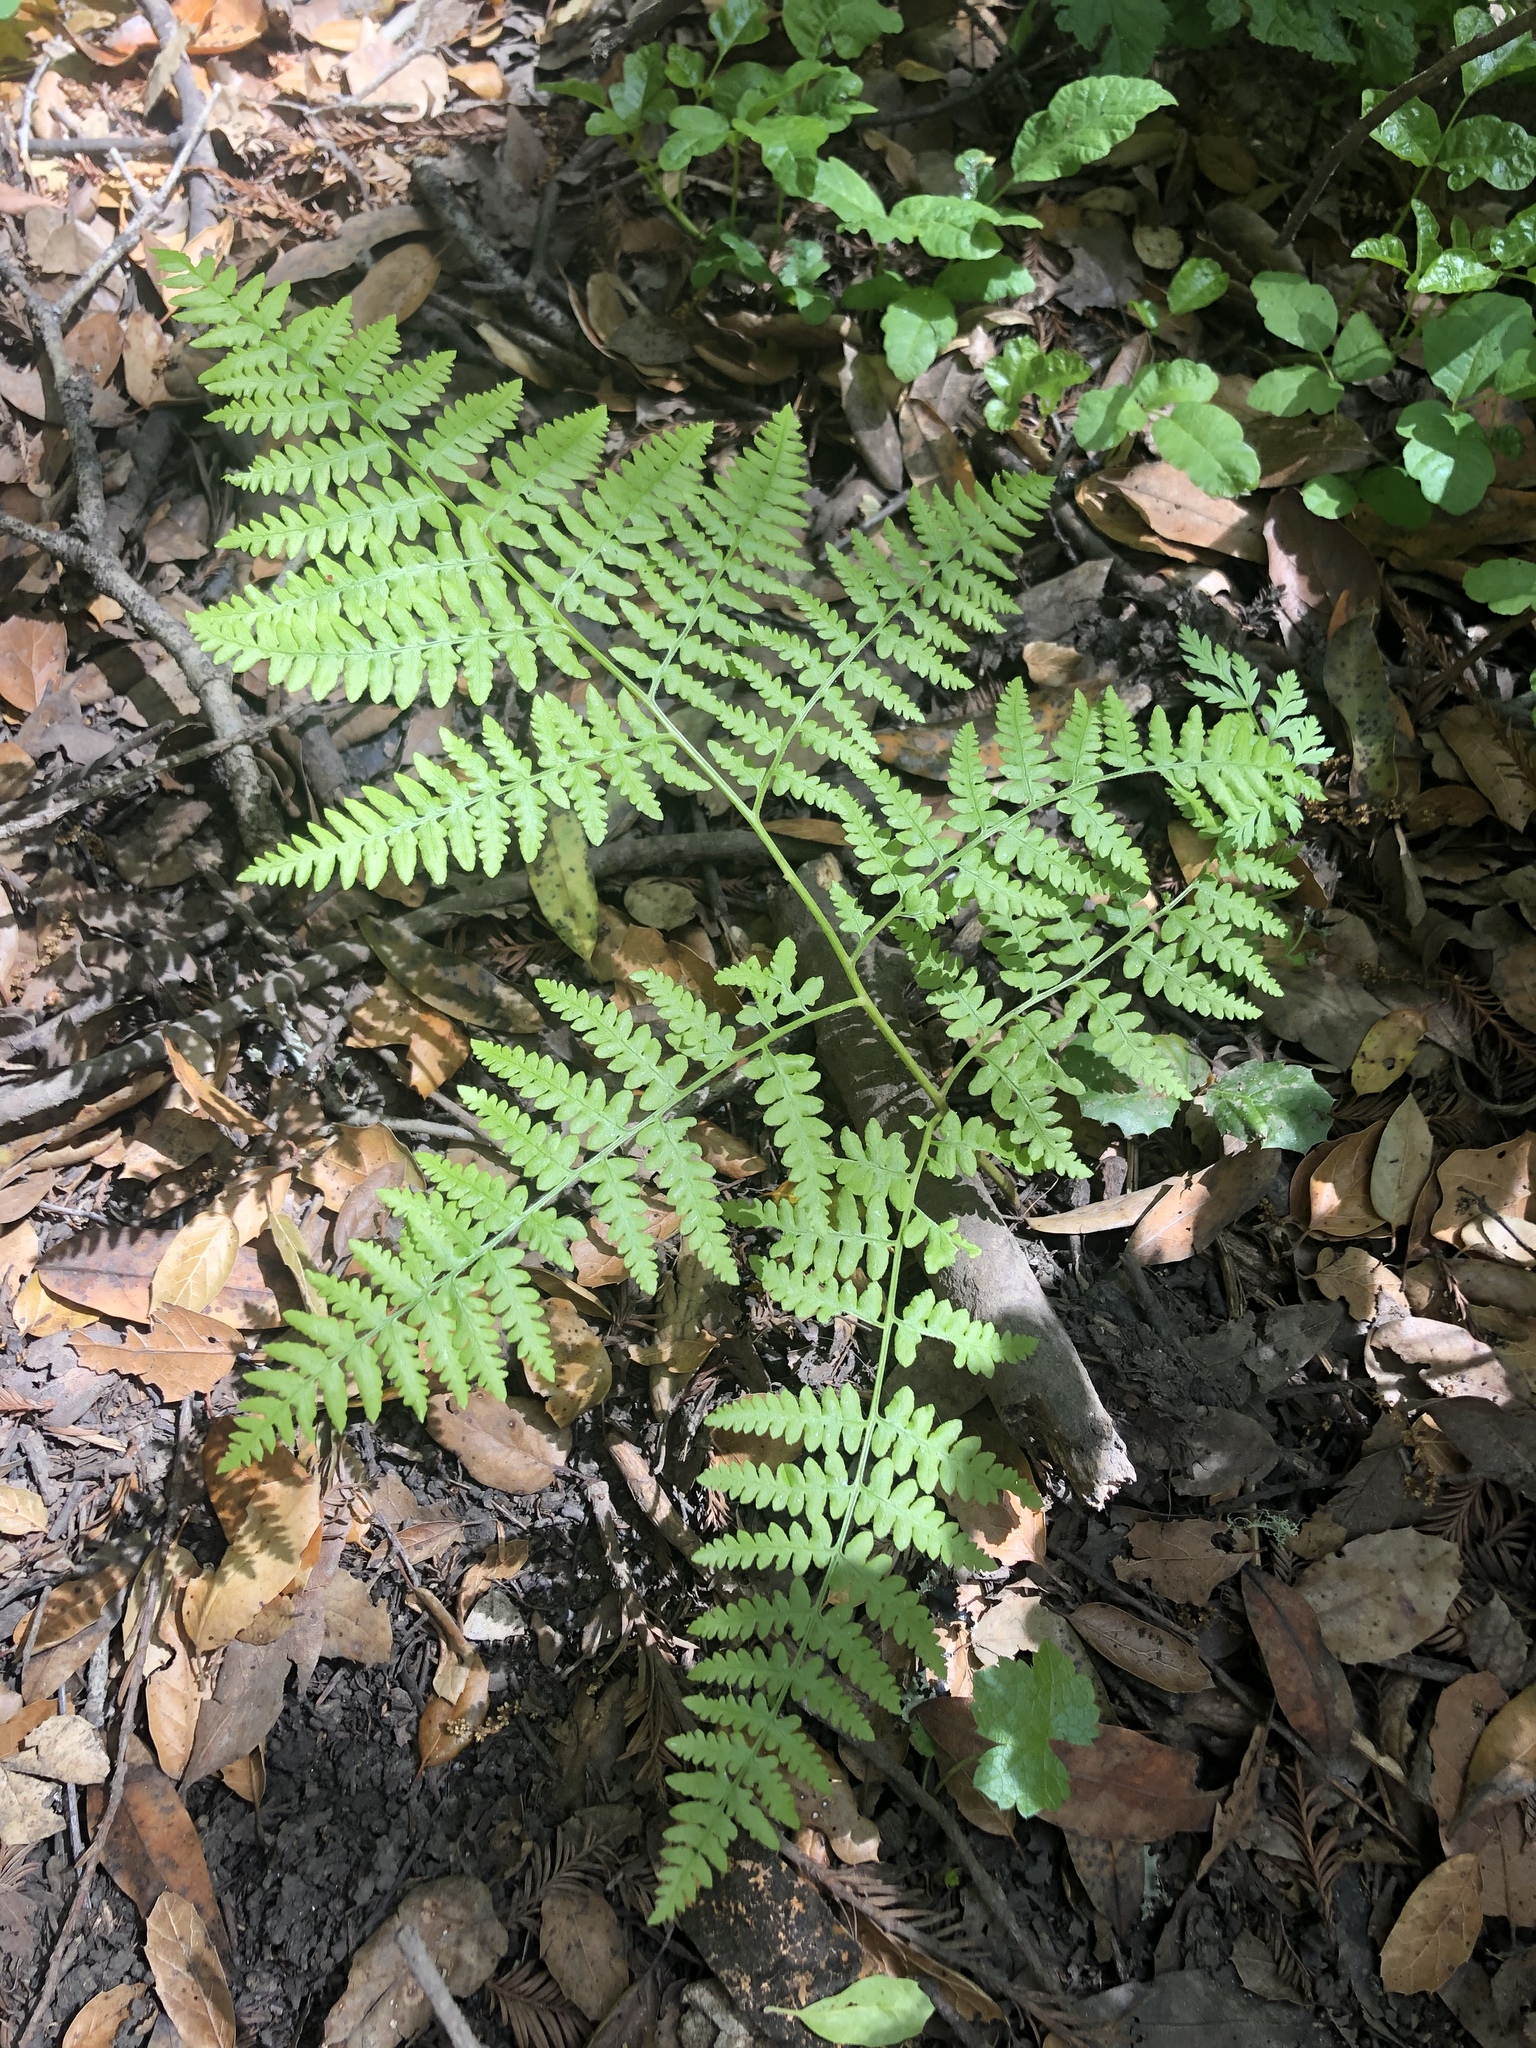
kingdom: Plantae
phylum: Tracheophyta
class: Polypodiopsida
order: Polypodiales
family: Dennstaedtiaceae
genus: Pteridium
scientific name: Pteridium aquilinum
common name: Bracken
